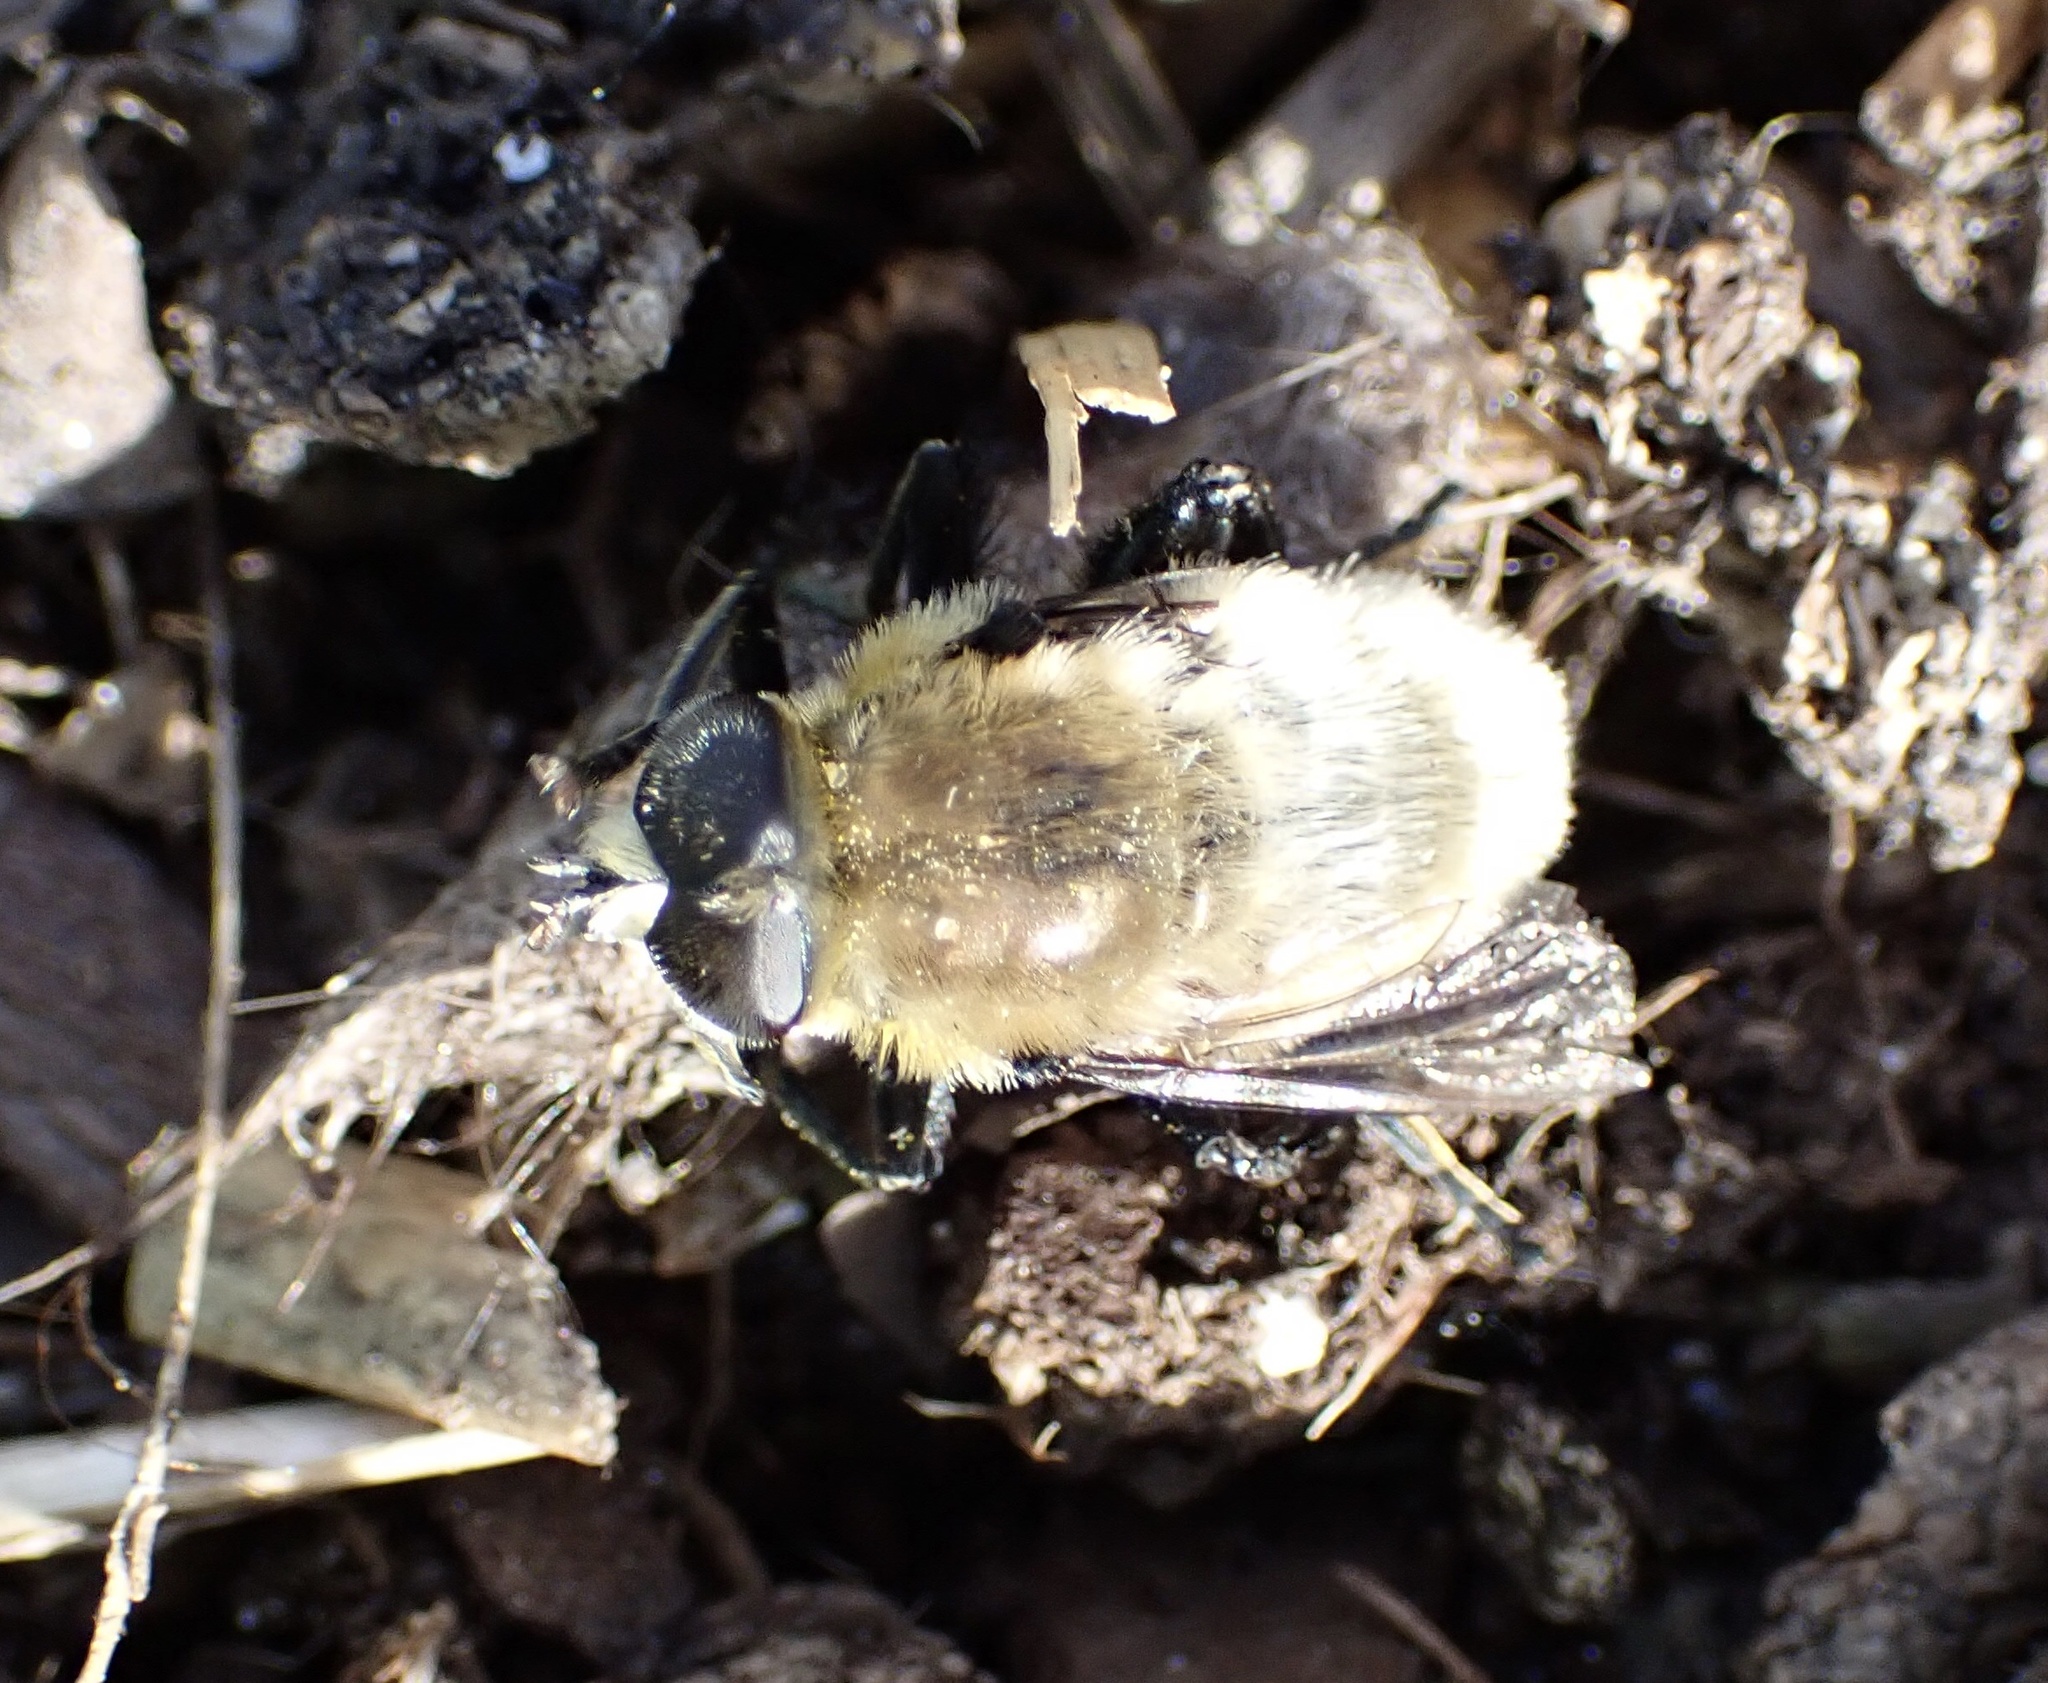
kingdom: Animalia
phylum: Arthropoda
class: Insecta
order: Diptera
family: Syrphidae
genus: Merodon
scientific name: Merodon equestris
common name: Greater bulb-fly
